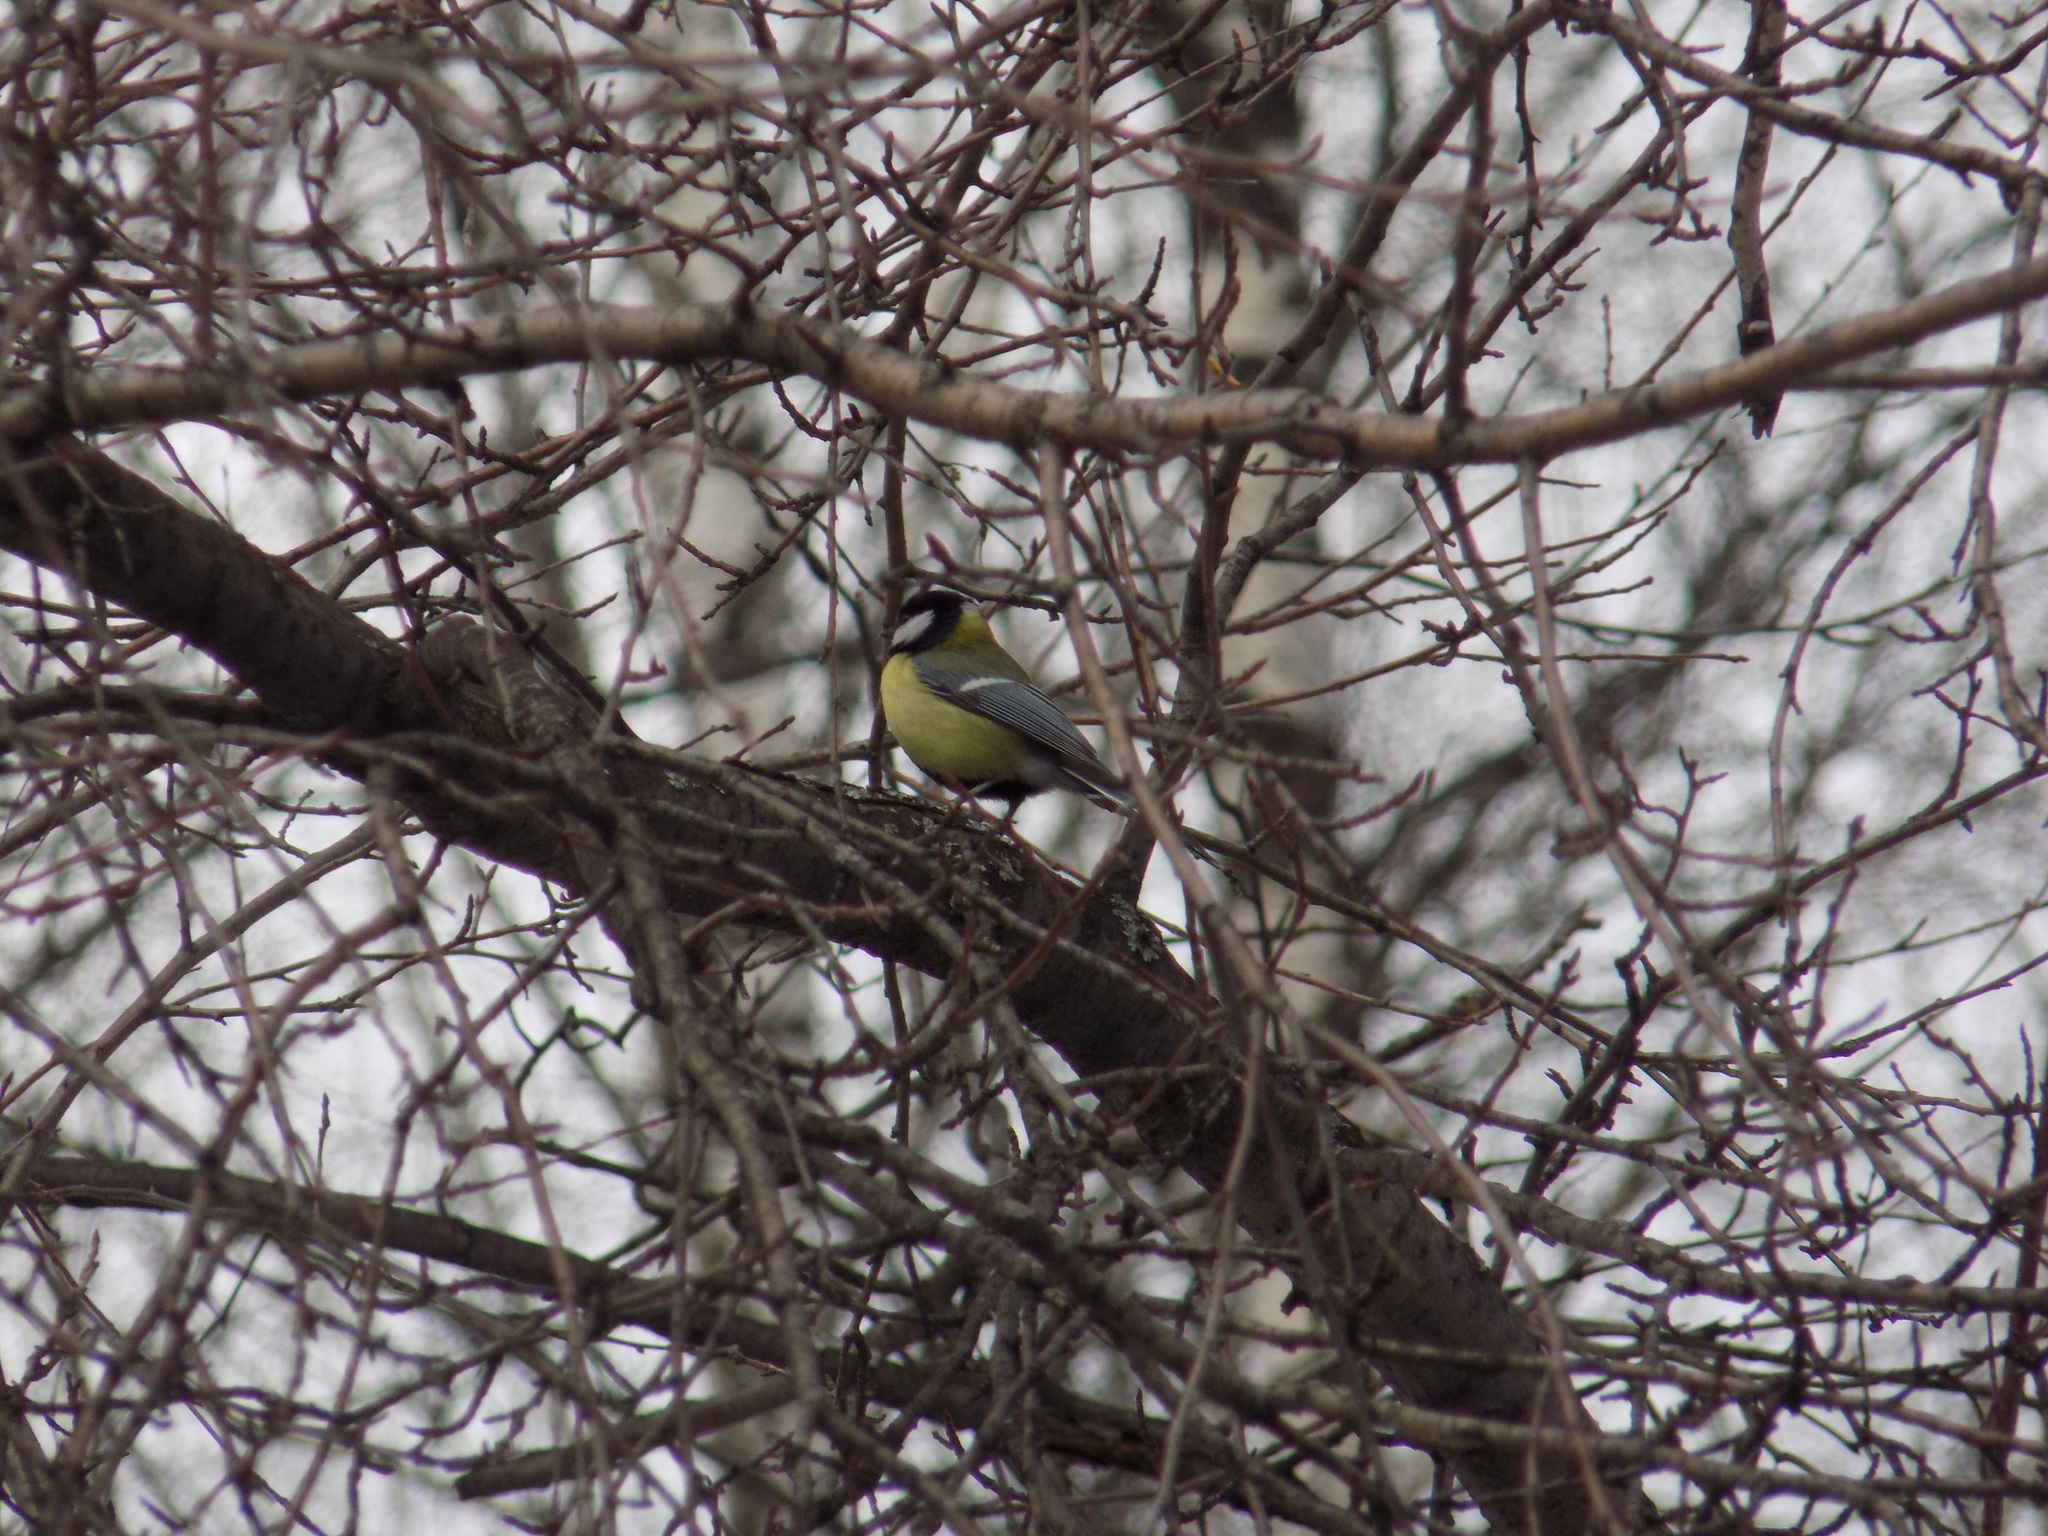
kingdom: Animalia
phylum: Chordata
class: Aves
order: Passeriformes
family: Paridae
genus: Parus
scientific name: Parus major
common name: Great tit
